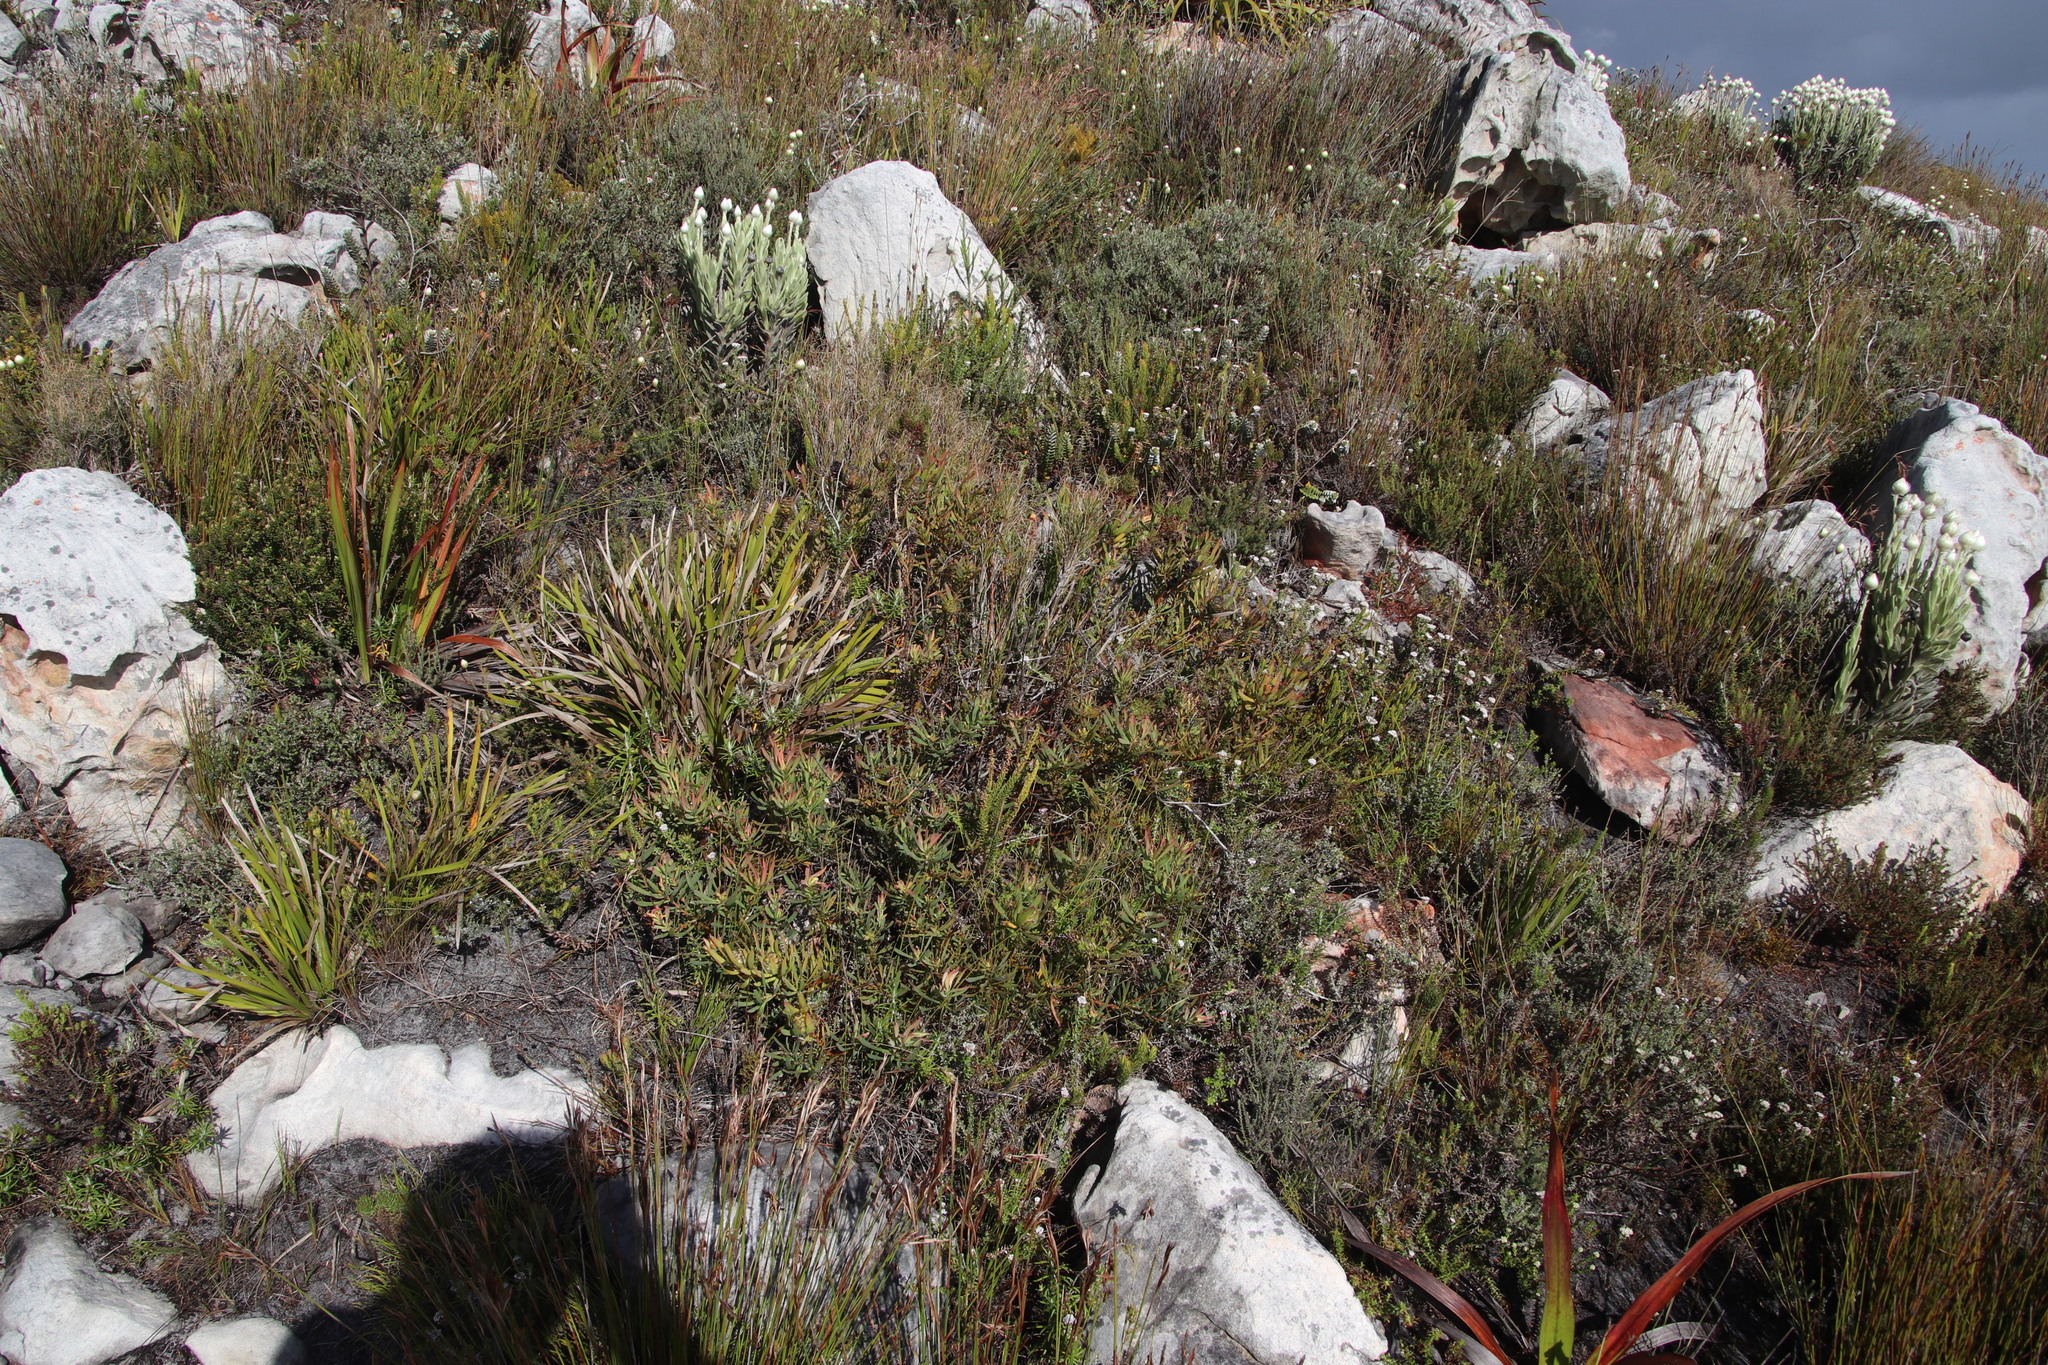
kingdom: Plantae
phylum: Tracheophyta
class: Magnoliopsida
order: Proteales
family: Proteaceae
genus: Leucadendron
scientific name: Leucadendron salignum
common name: Common sunshine conebush
